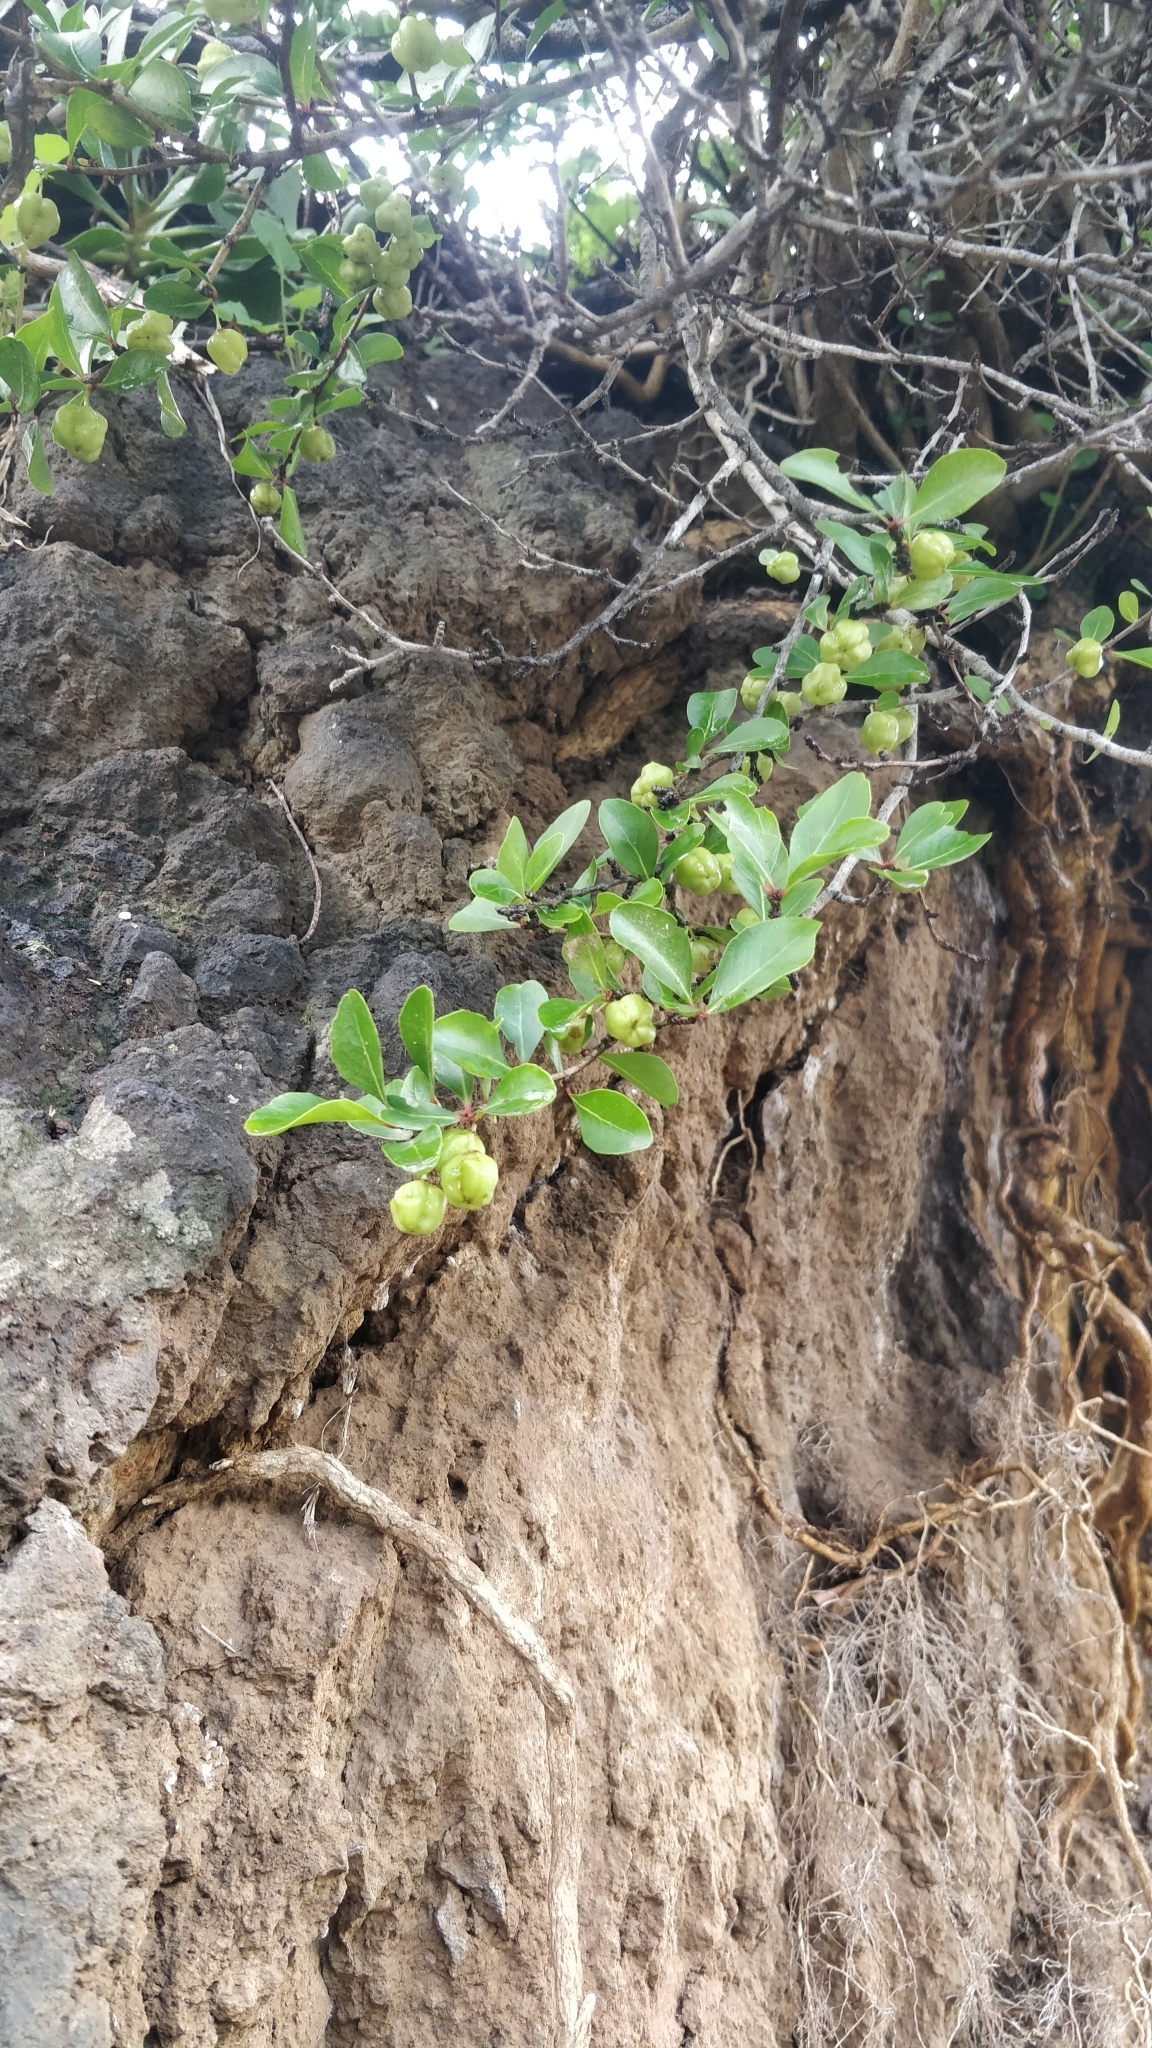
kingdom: Plantae
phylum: Tracheophyta
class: Magnoliopsida
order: Celastrales
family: Celastraceae
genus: Gymnosporia
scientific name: Gymnosporia dryandri
